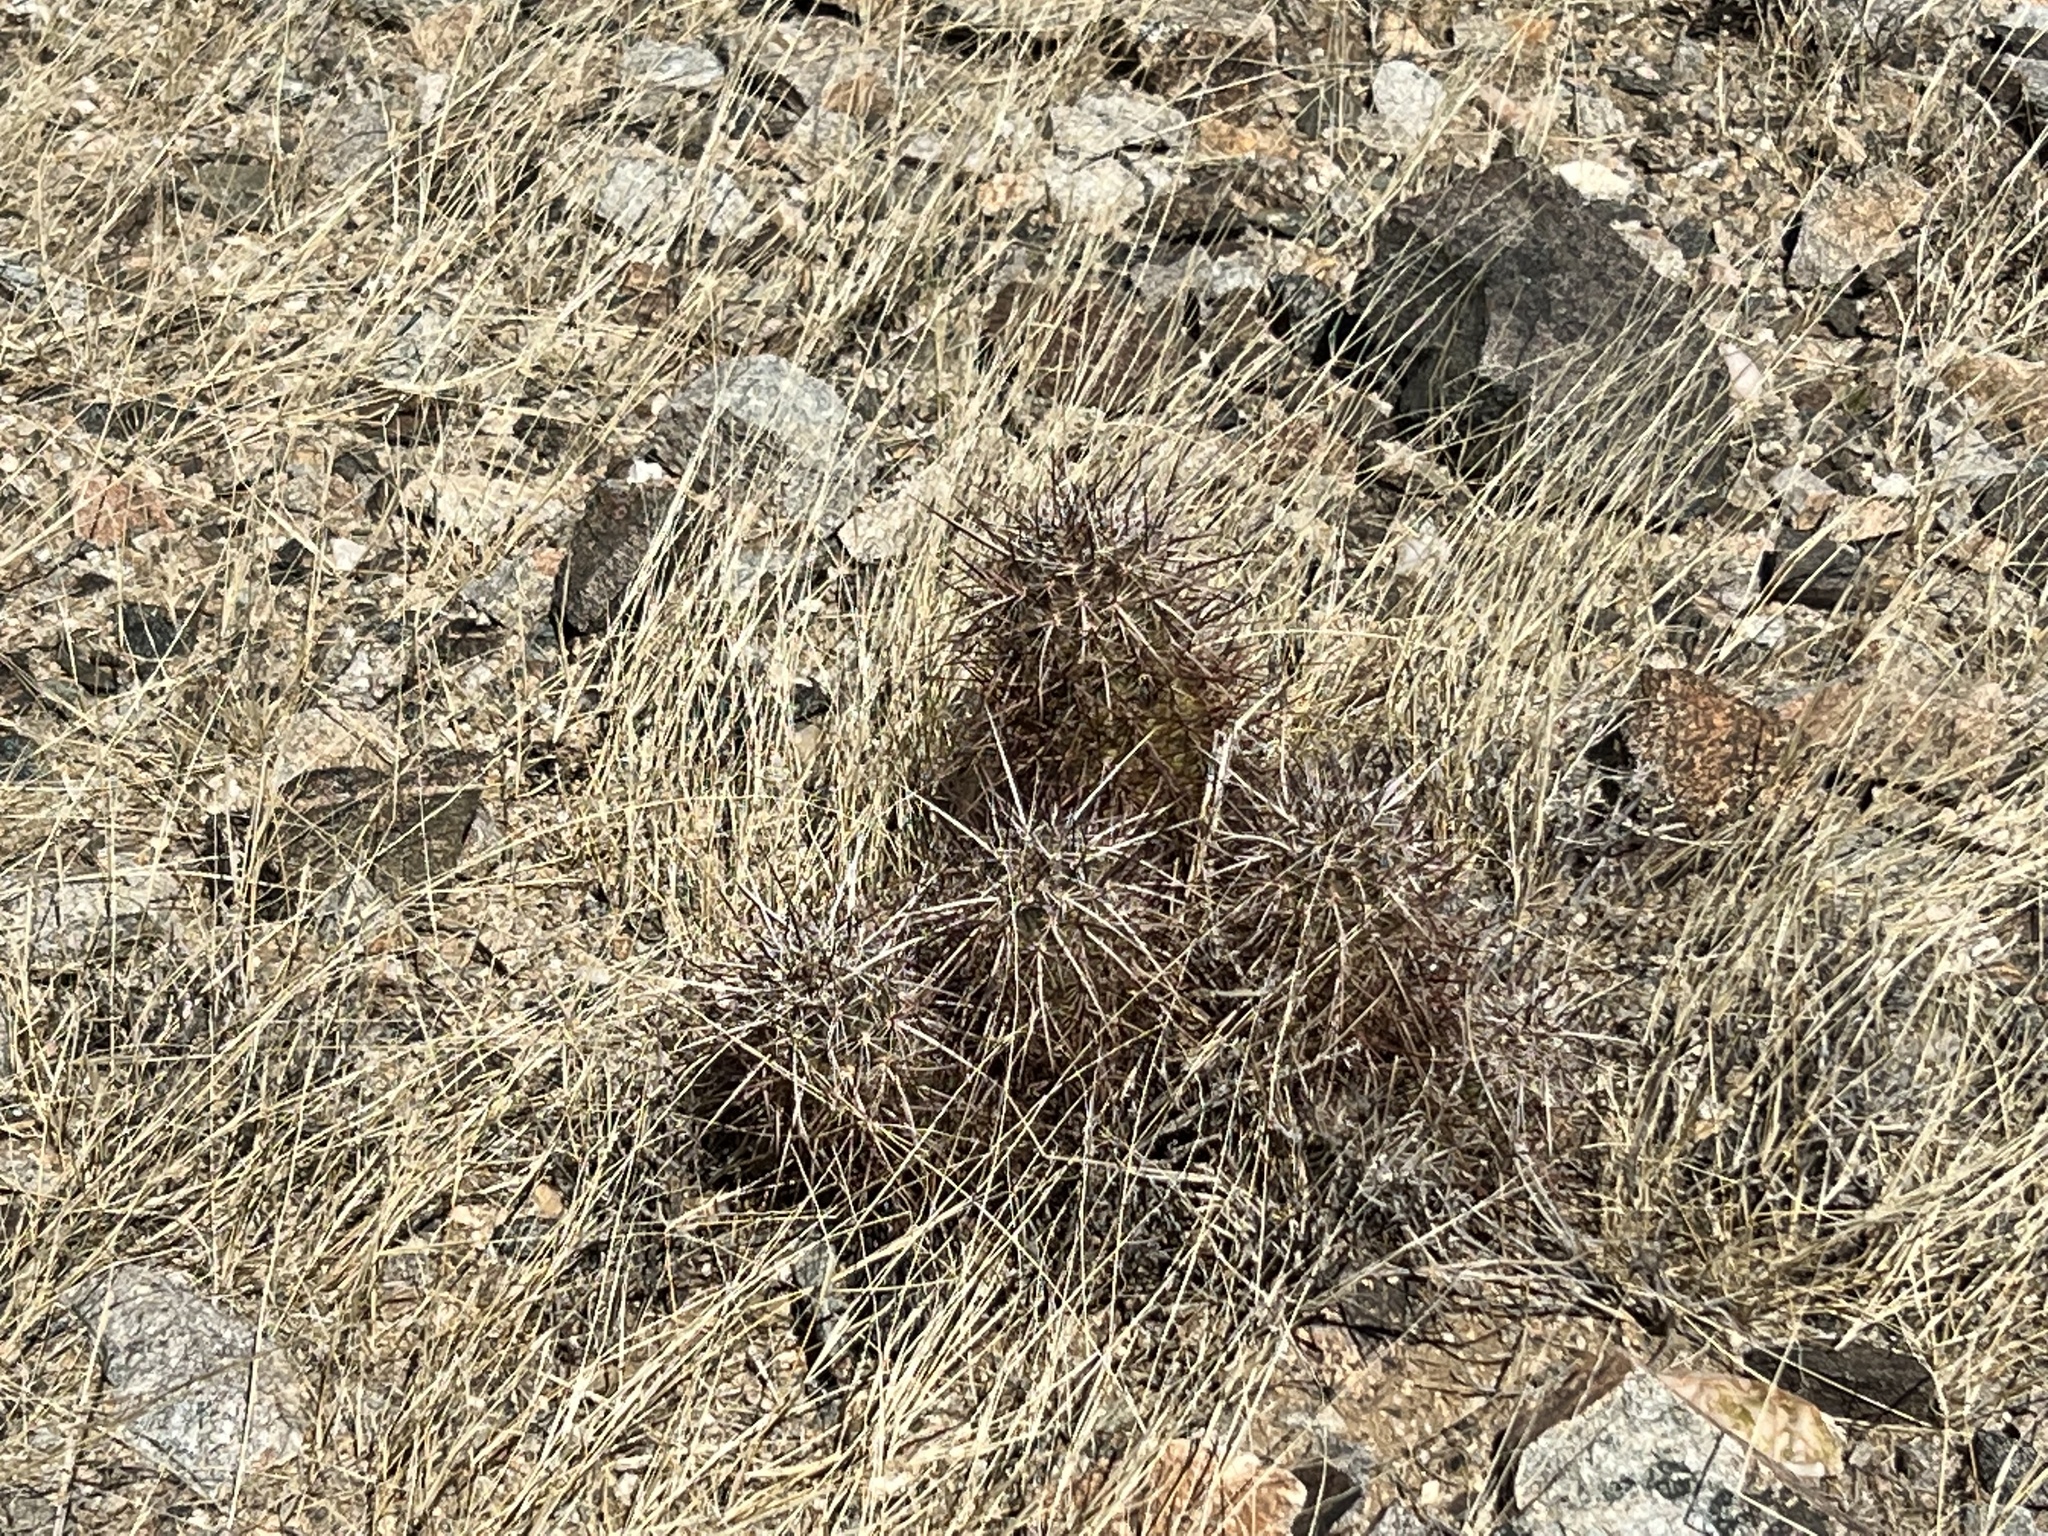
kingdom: Plantae
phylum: Tracheophyta
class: Magnoliopsida
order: Caryophyllales
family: Cactaceae
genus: Echinocereus
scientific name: Echinocereus engelmannii
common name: Engelmann's hedgehog cactus
